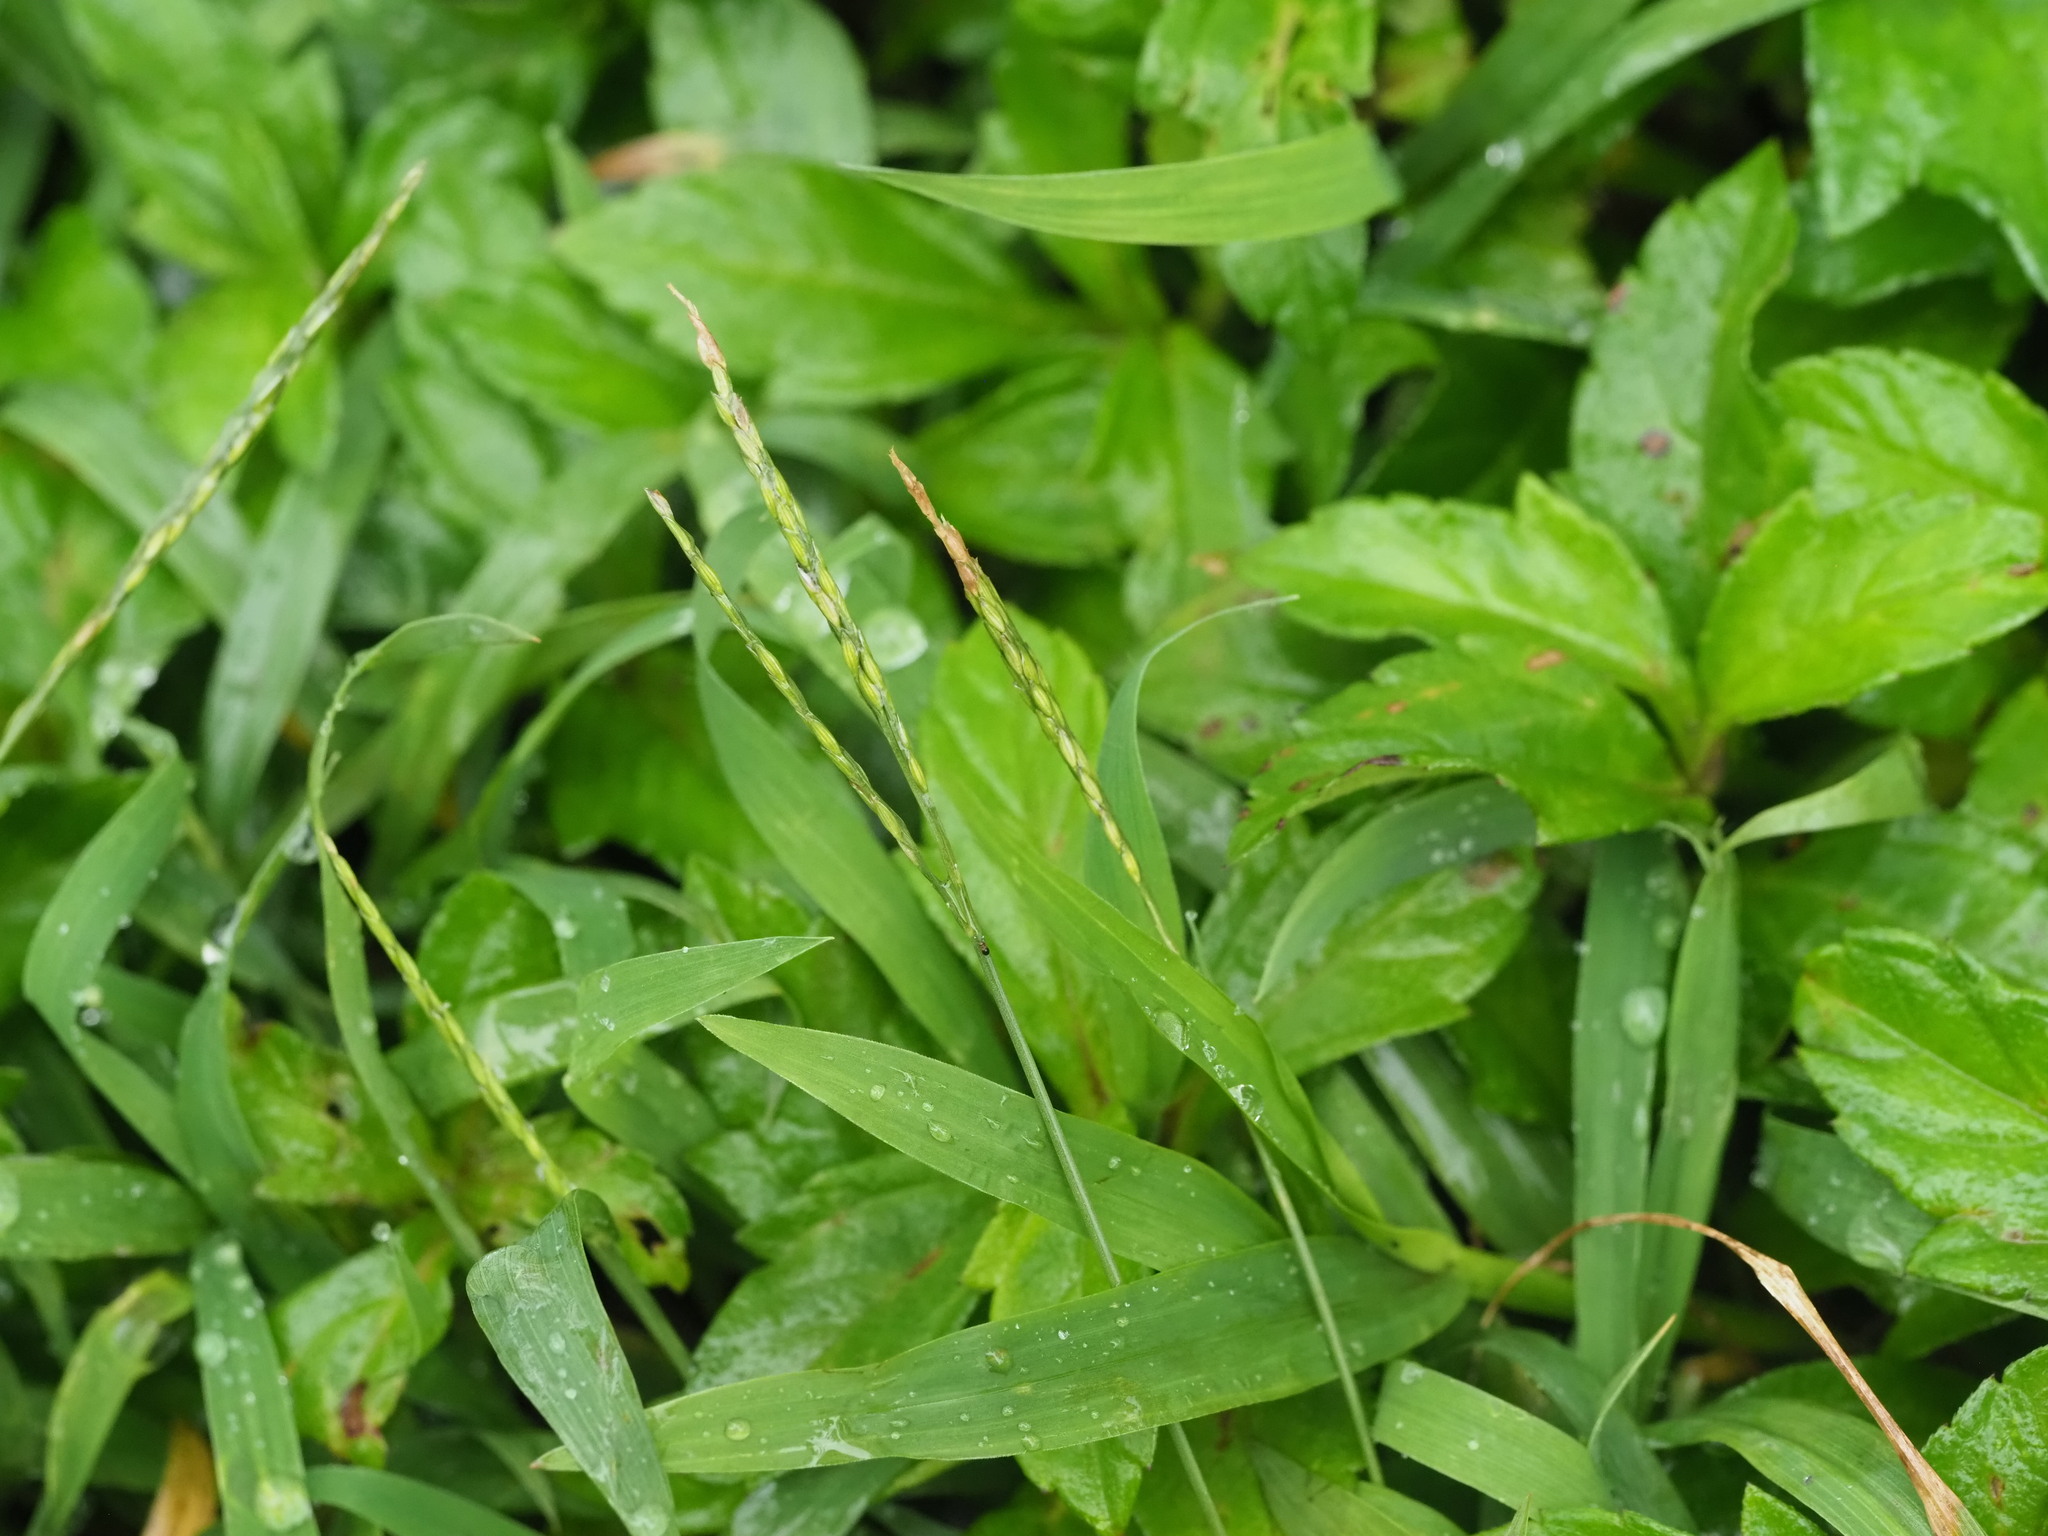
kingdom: Plantae
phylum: Tracheophyta
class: Liliopsida
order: Poales
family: Poaceae
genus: Digitaria
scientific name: Digitaria ciliaris
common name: Tropical finger-grass
